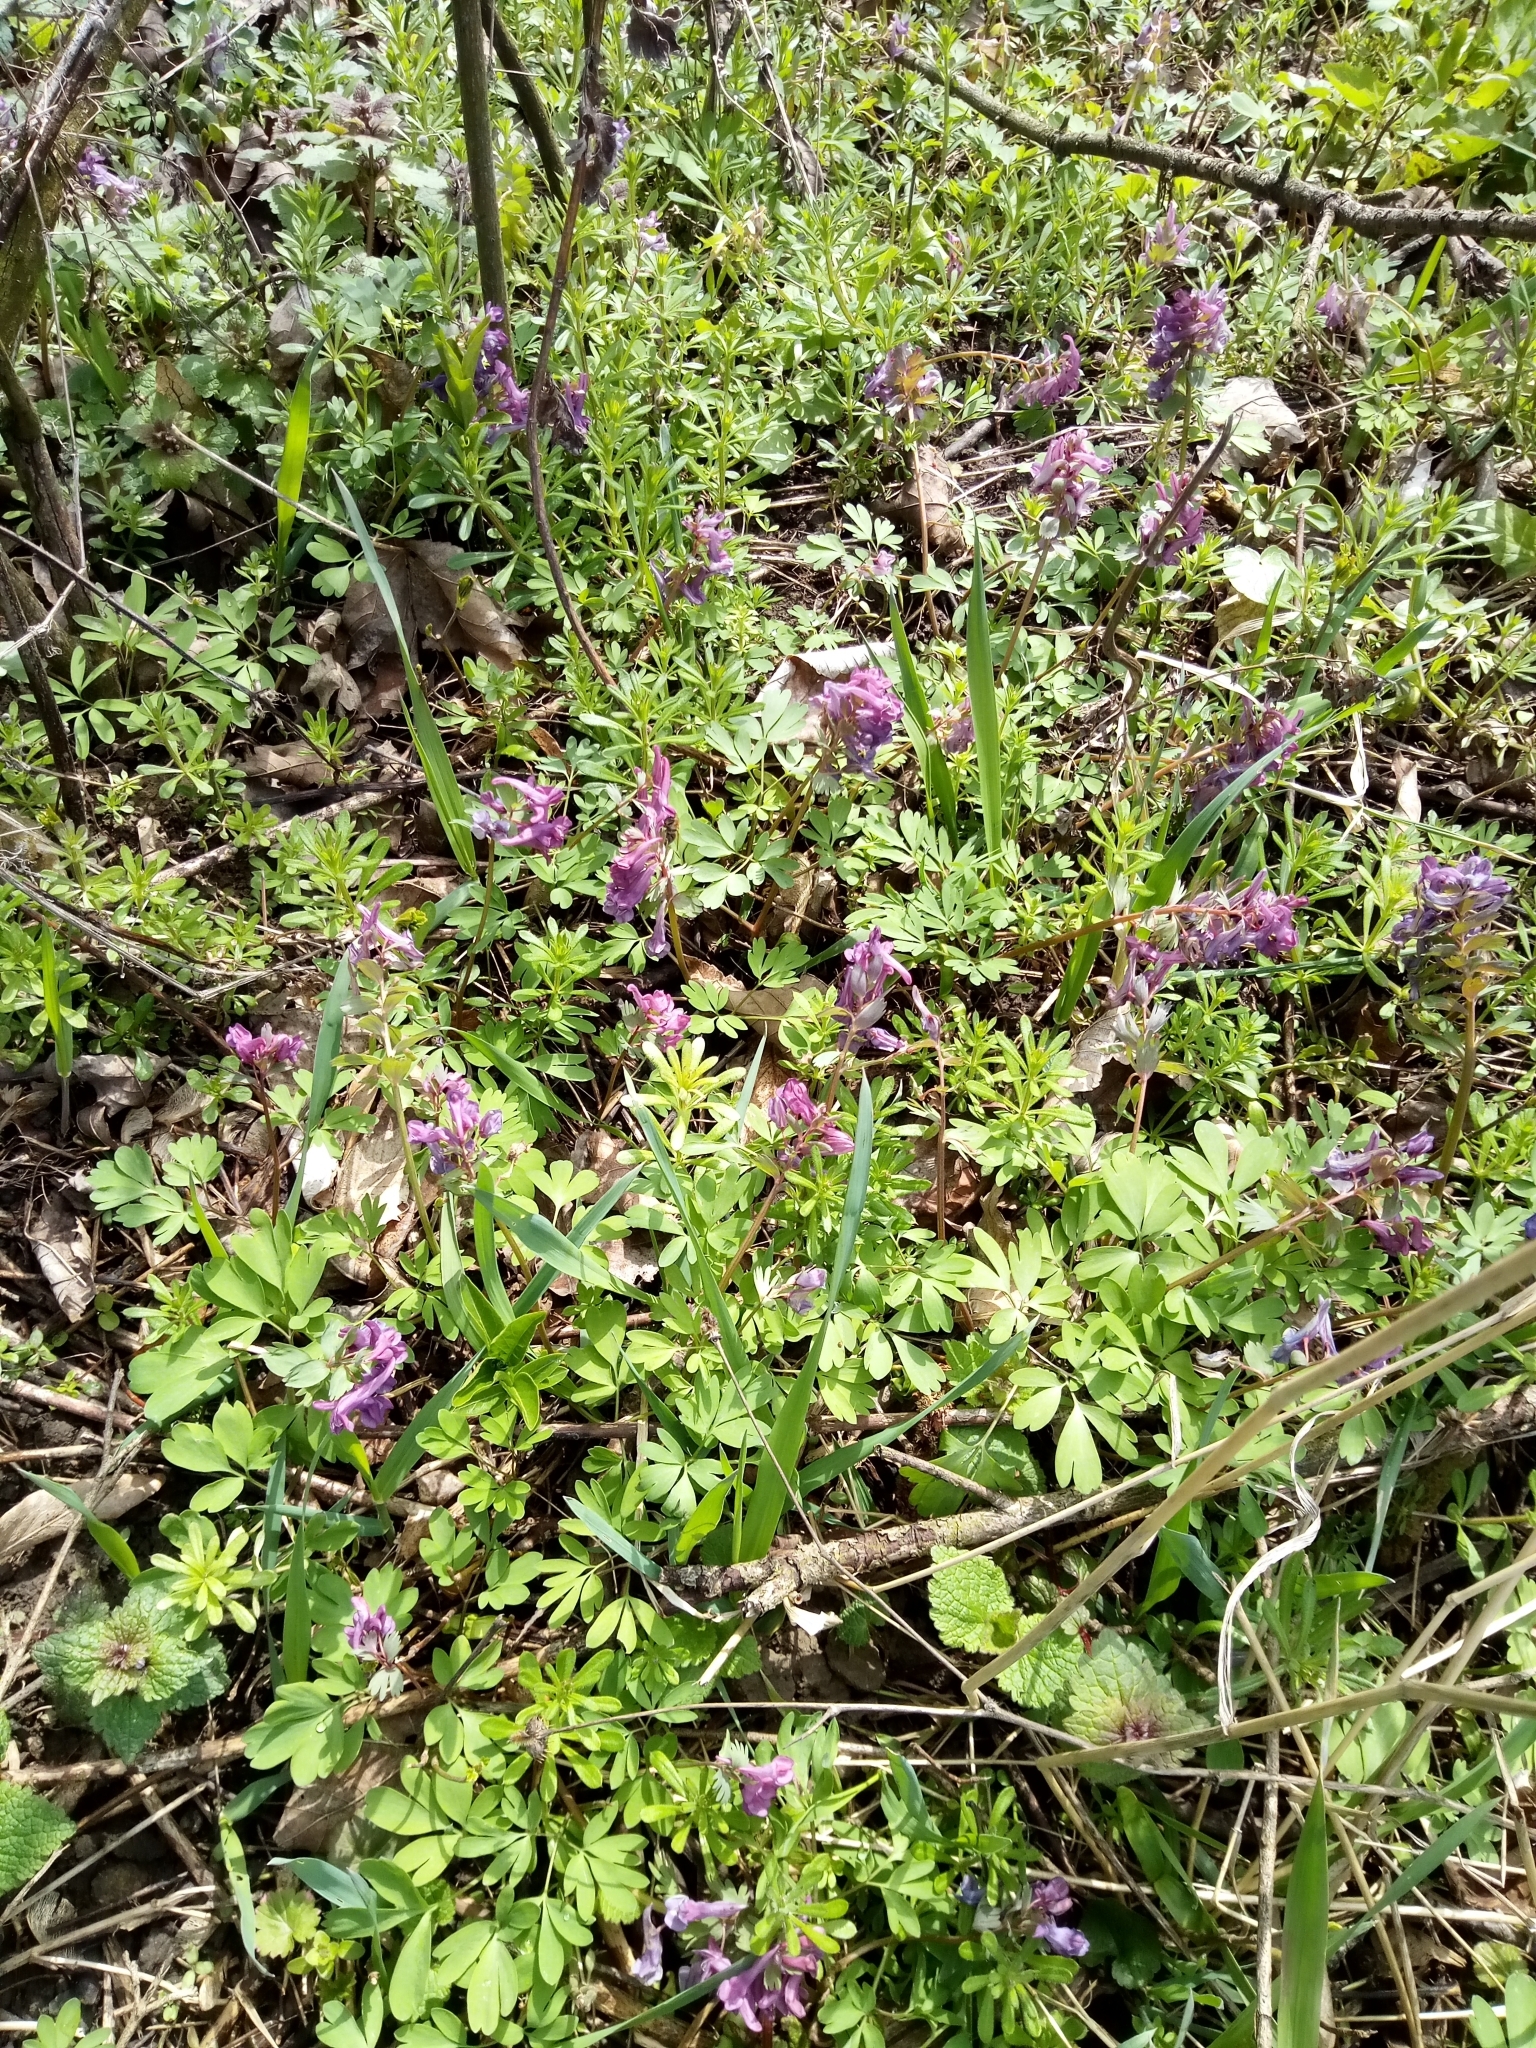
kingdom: Plantae
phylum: Tracheophyta
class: Magnoliopsida
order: Ranunculales
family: Papaveraceae
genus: Corydalis
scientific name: Corydalis solida
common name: Bird-in-a-bush
